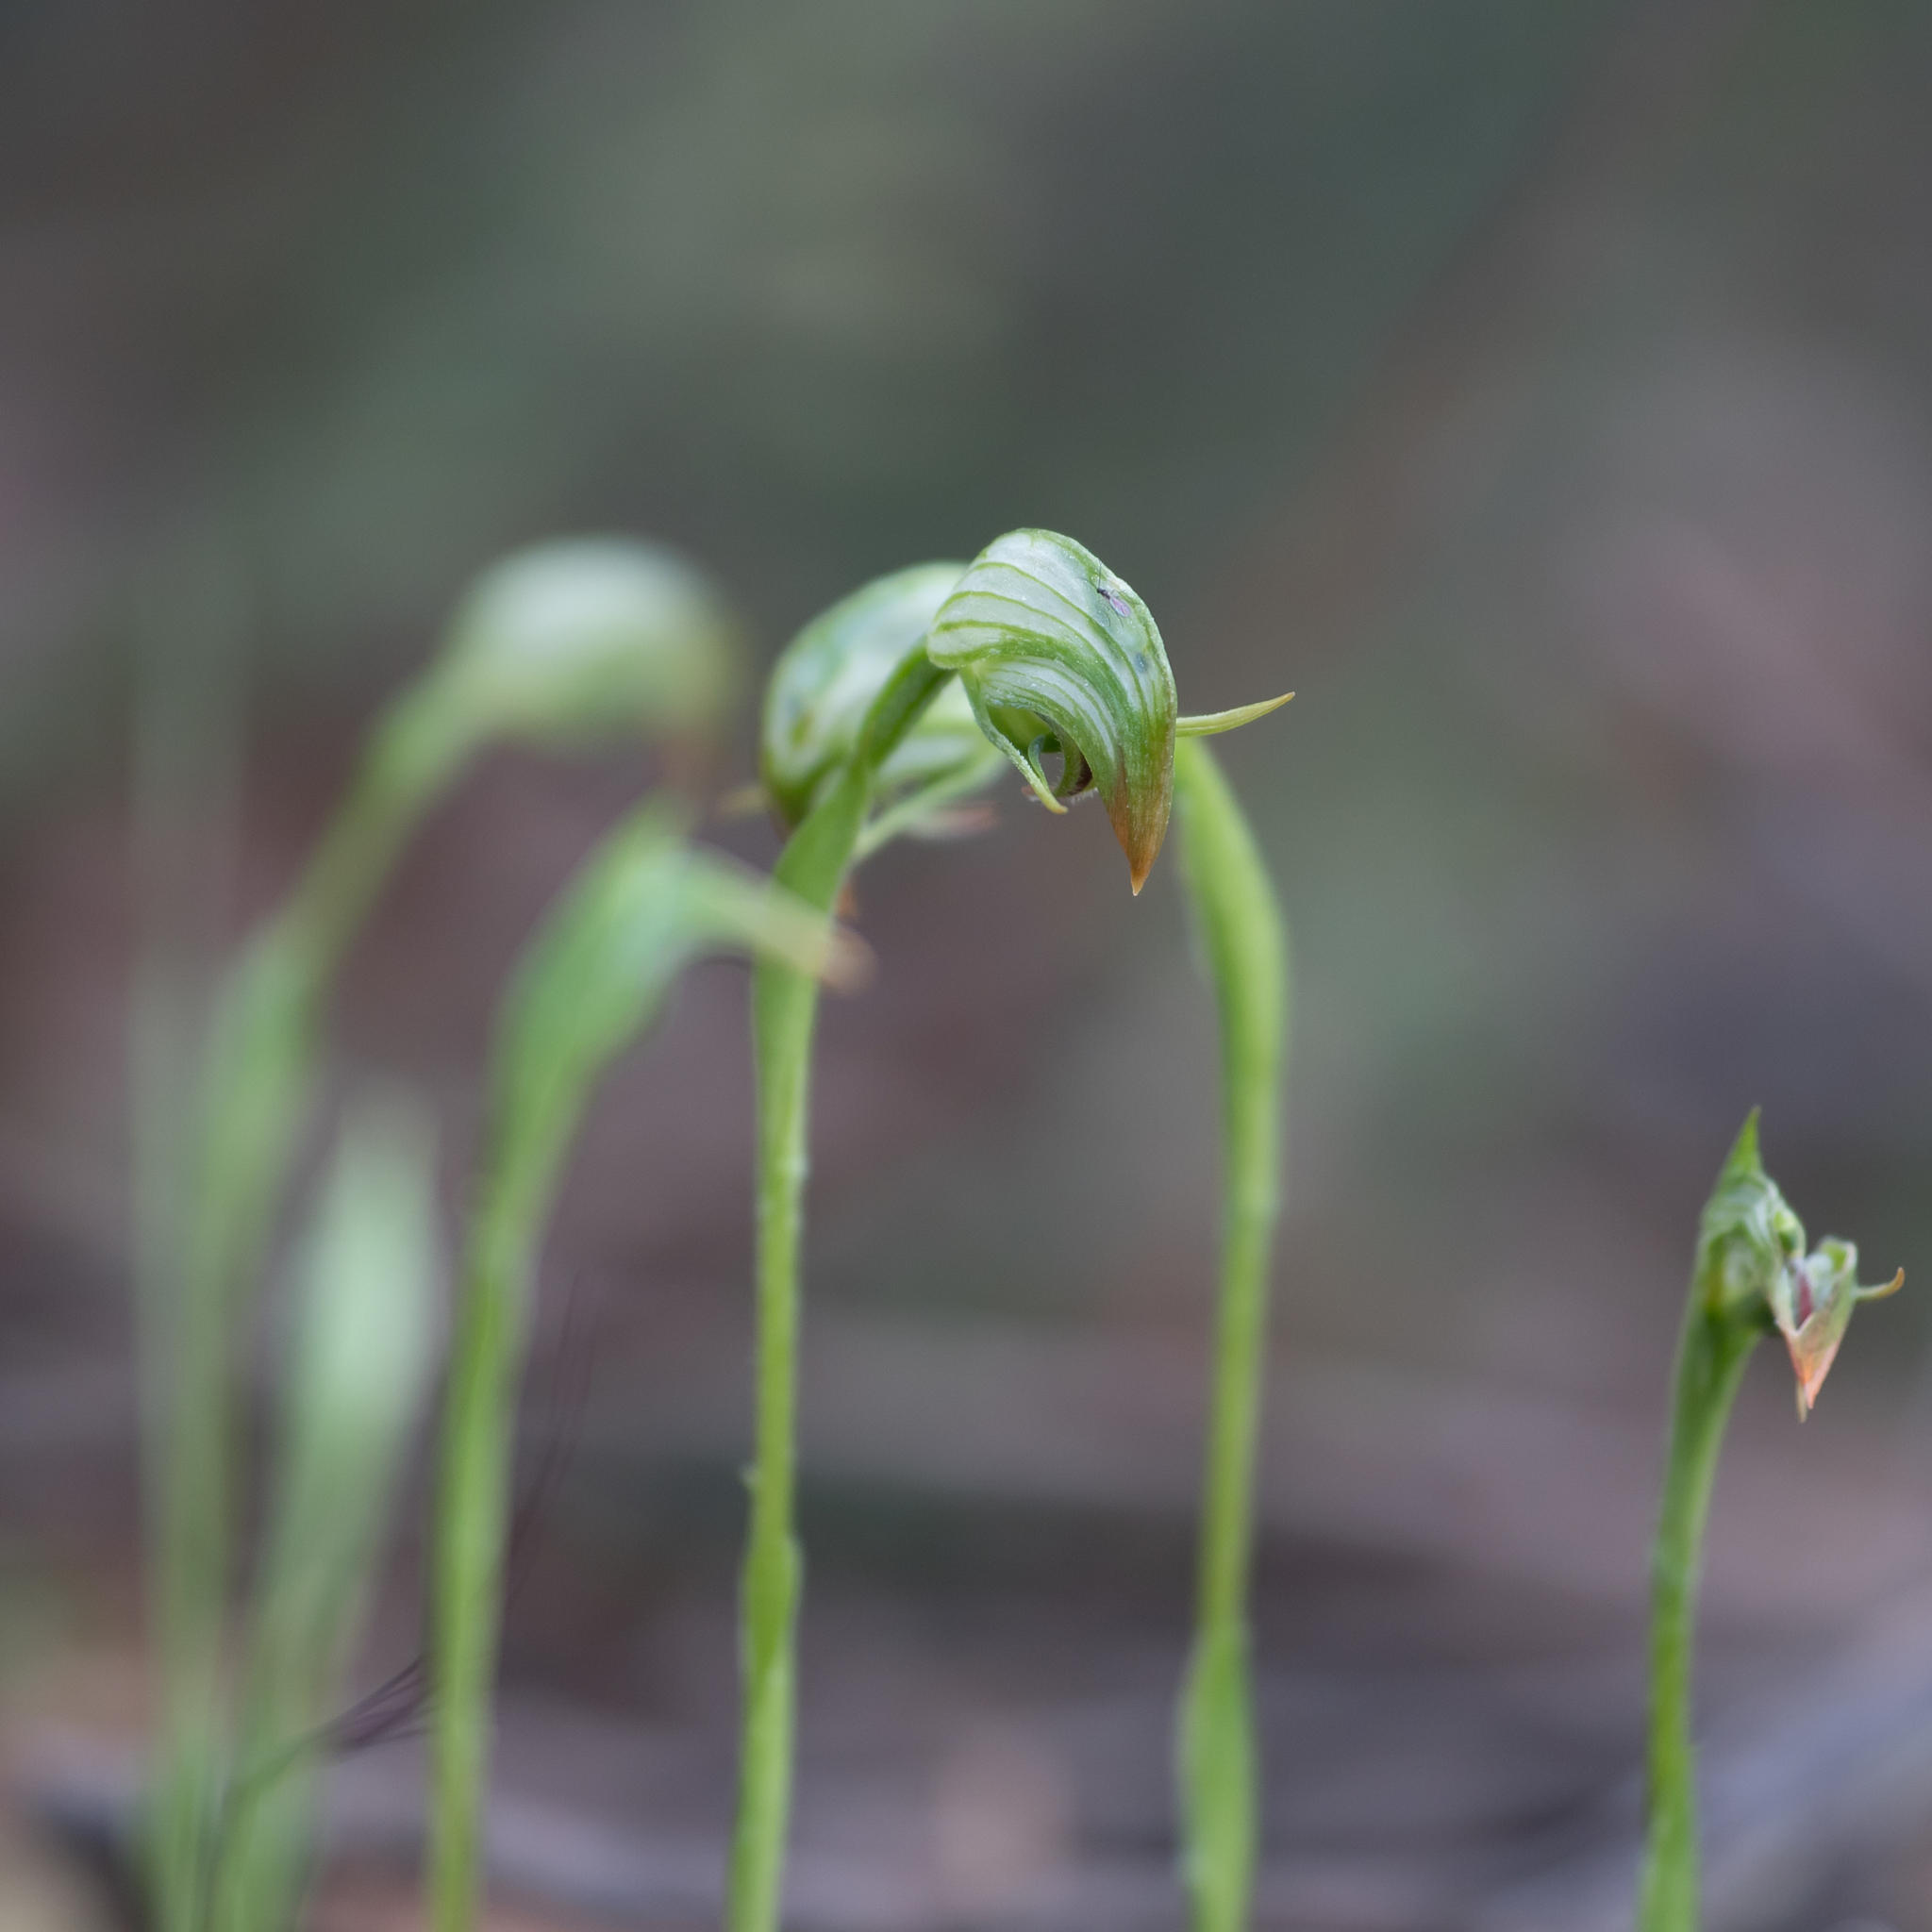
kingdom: Plantae
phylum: Tracheophyta
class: Liliopsida
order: Asparagales
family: Orchidaceae
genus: Pterostylis
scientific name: Pterostylis nutans
